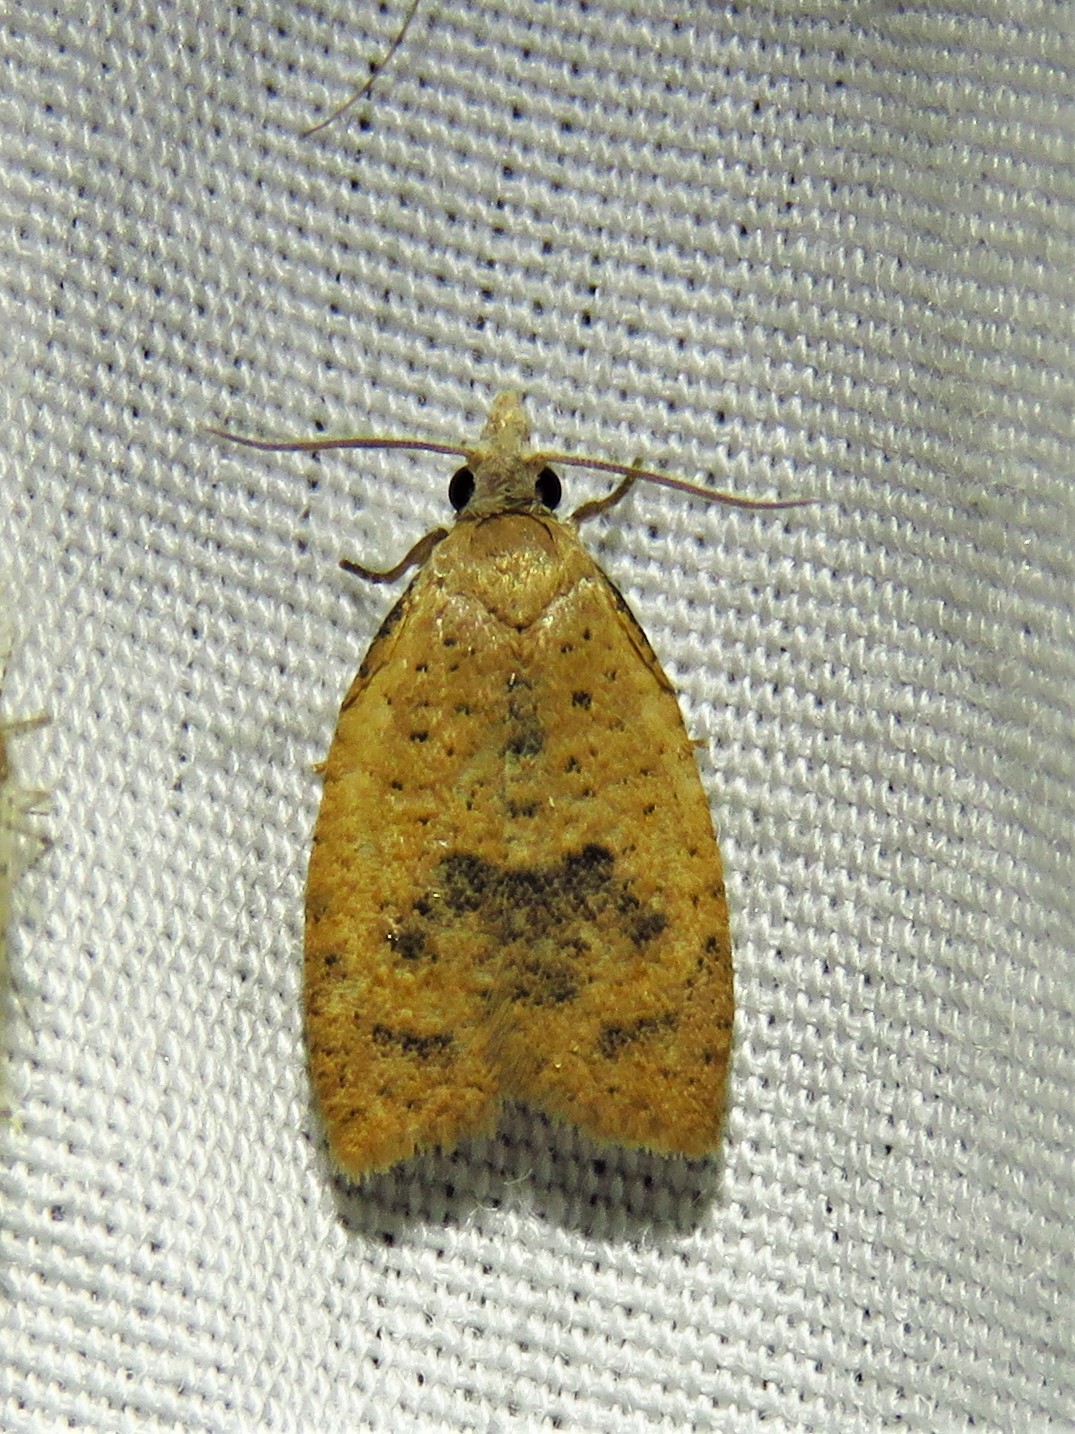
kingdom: Animalia
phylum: Arthropoda
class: Insecta
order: Lepidoptera
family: Tortricidae
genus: Sparganothoides
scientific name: Sparganothoides lentiginosana
